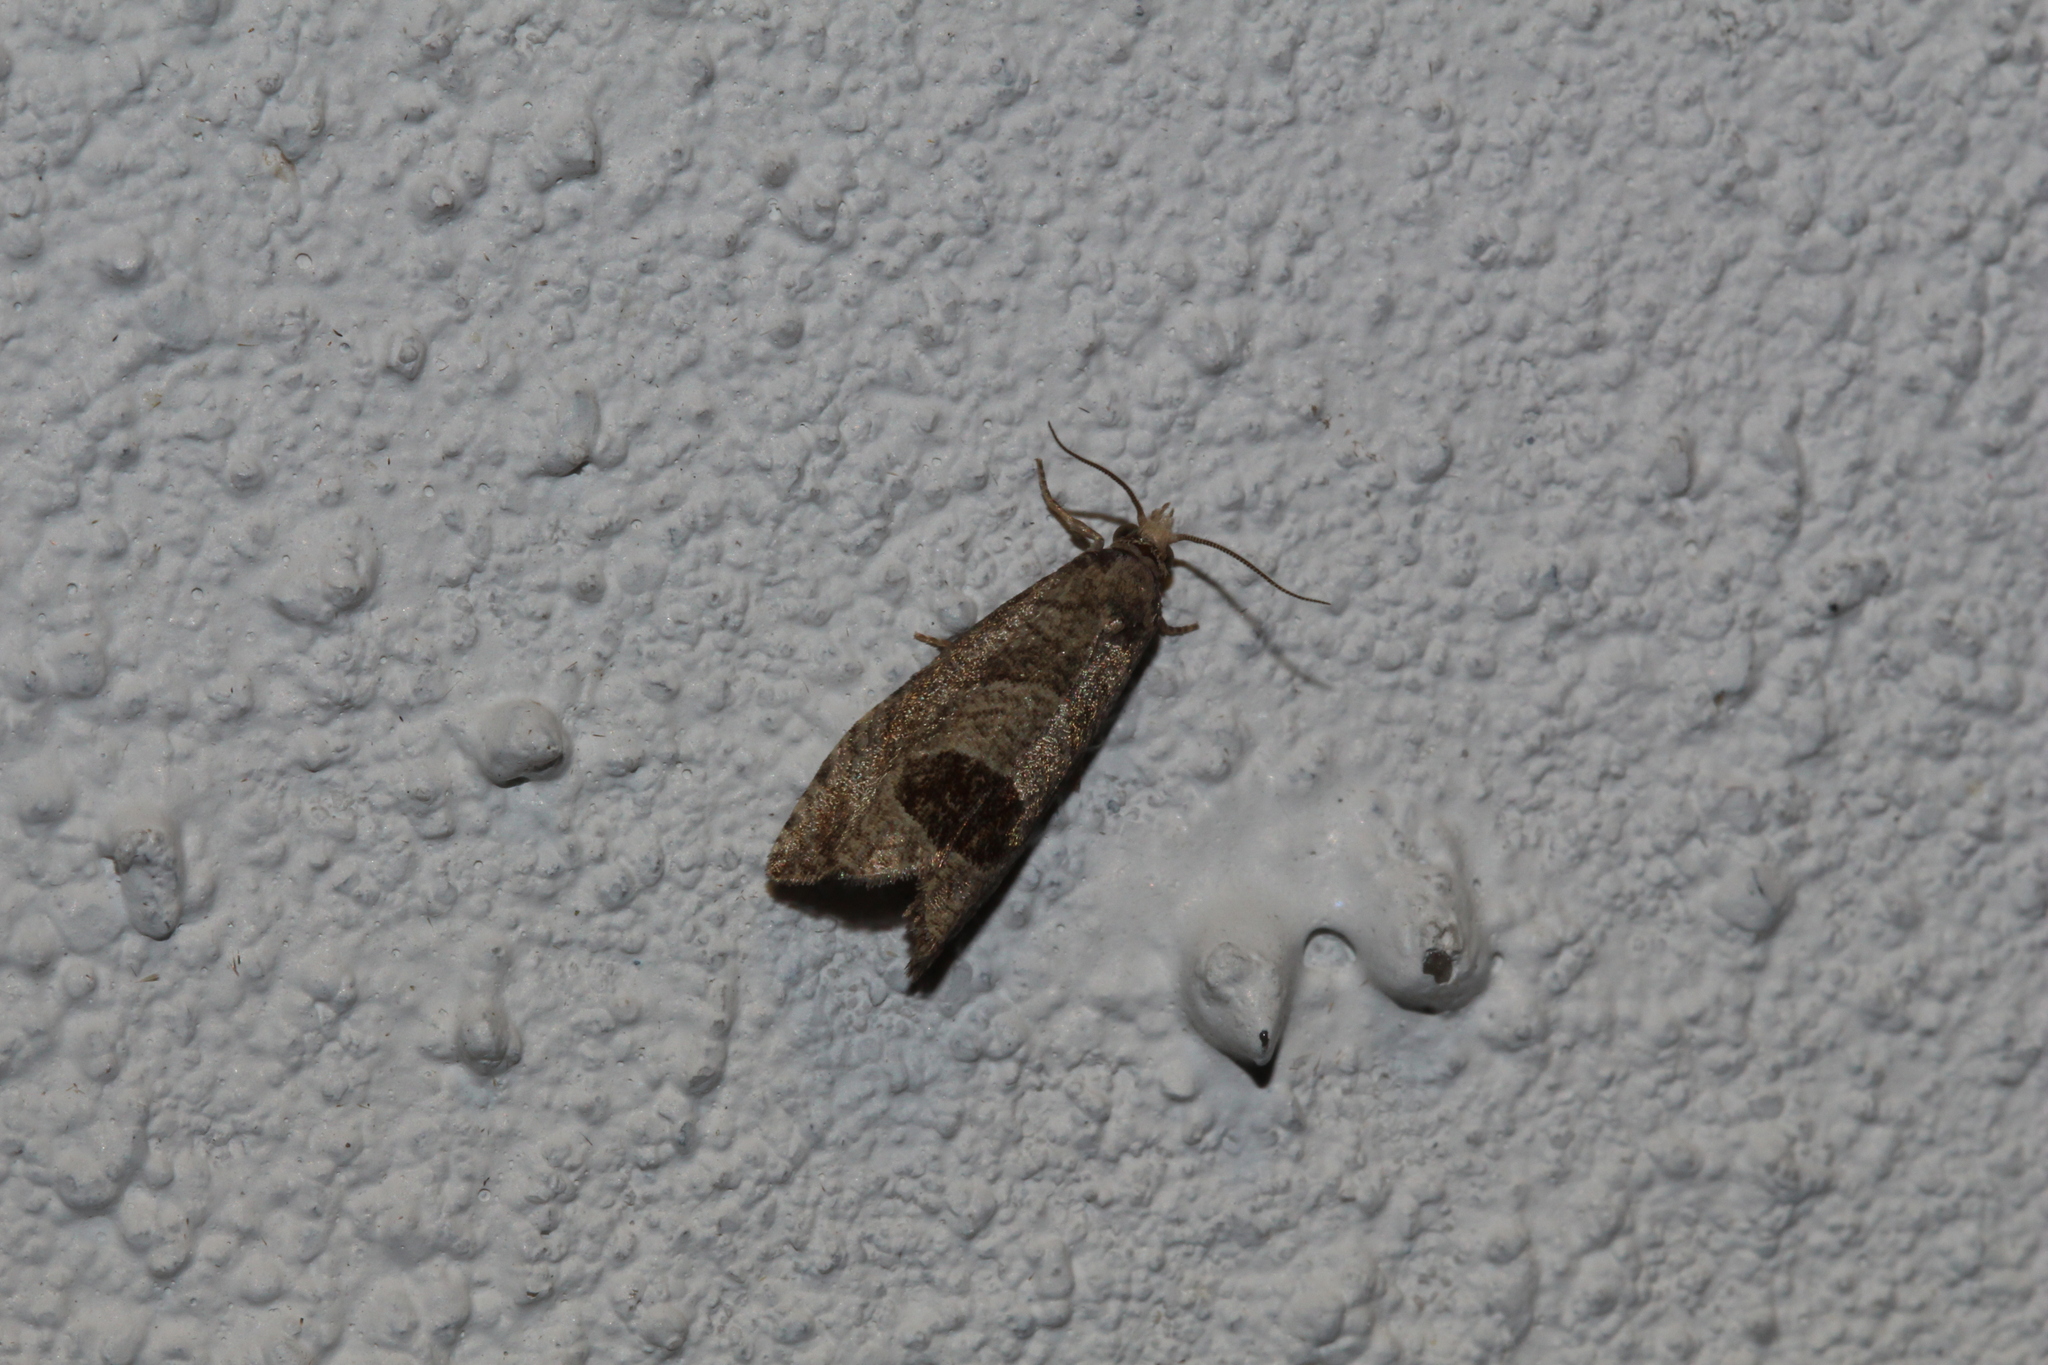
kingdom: Animalia
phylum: Arthropoda
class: Insecta
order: Lepidoptera
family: Tortricidae
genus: Notocelia
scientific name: Notocelia uddmanniana
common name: Bramble shoot moth
